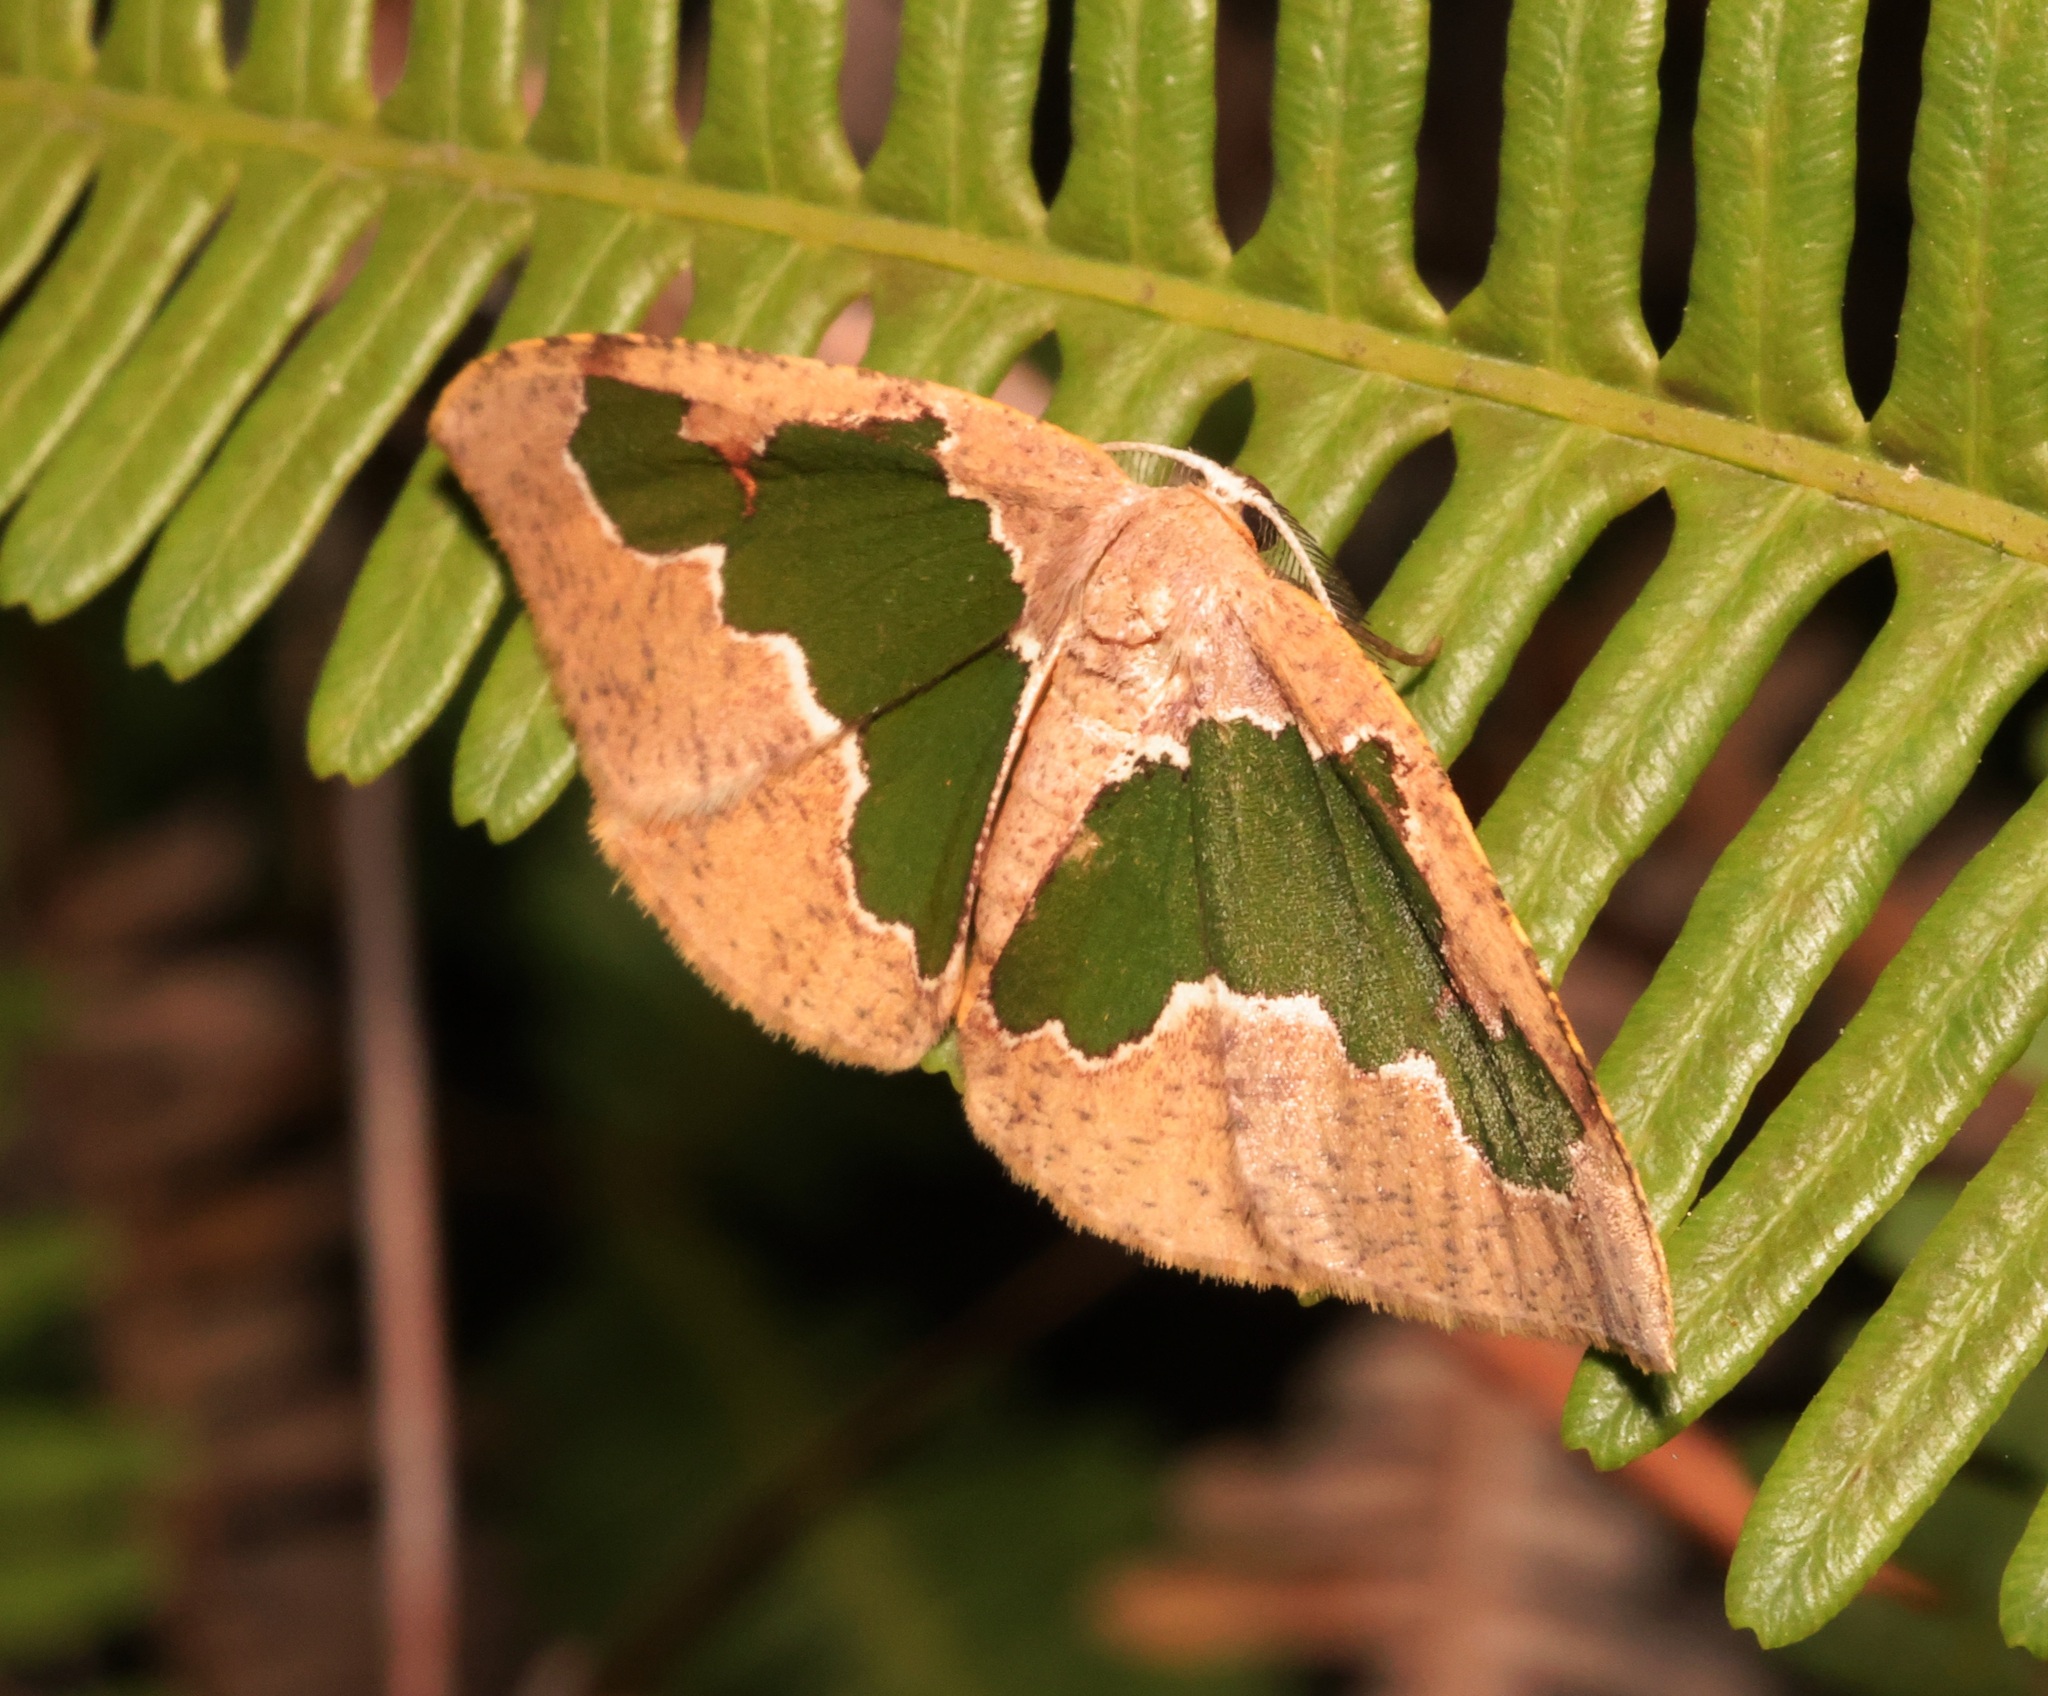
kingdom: Animalia
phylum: Arthropoda
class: Insecta
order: Lepidoptera
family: Geometridae
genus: Celenna
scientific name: Celenna festivaria
